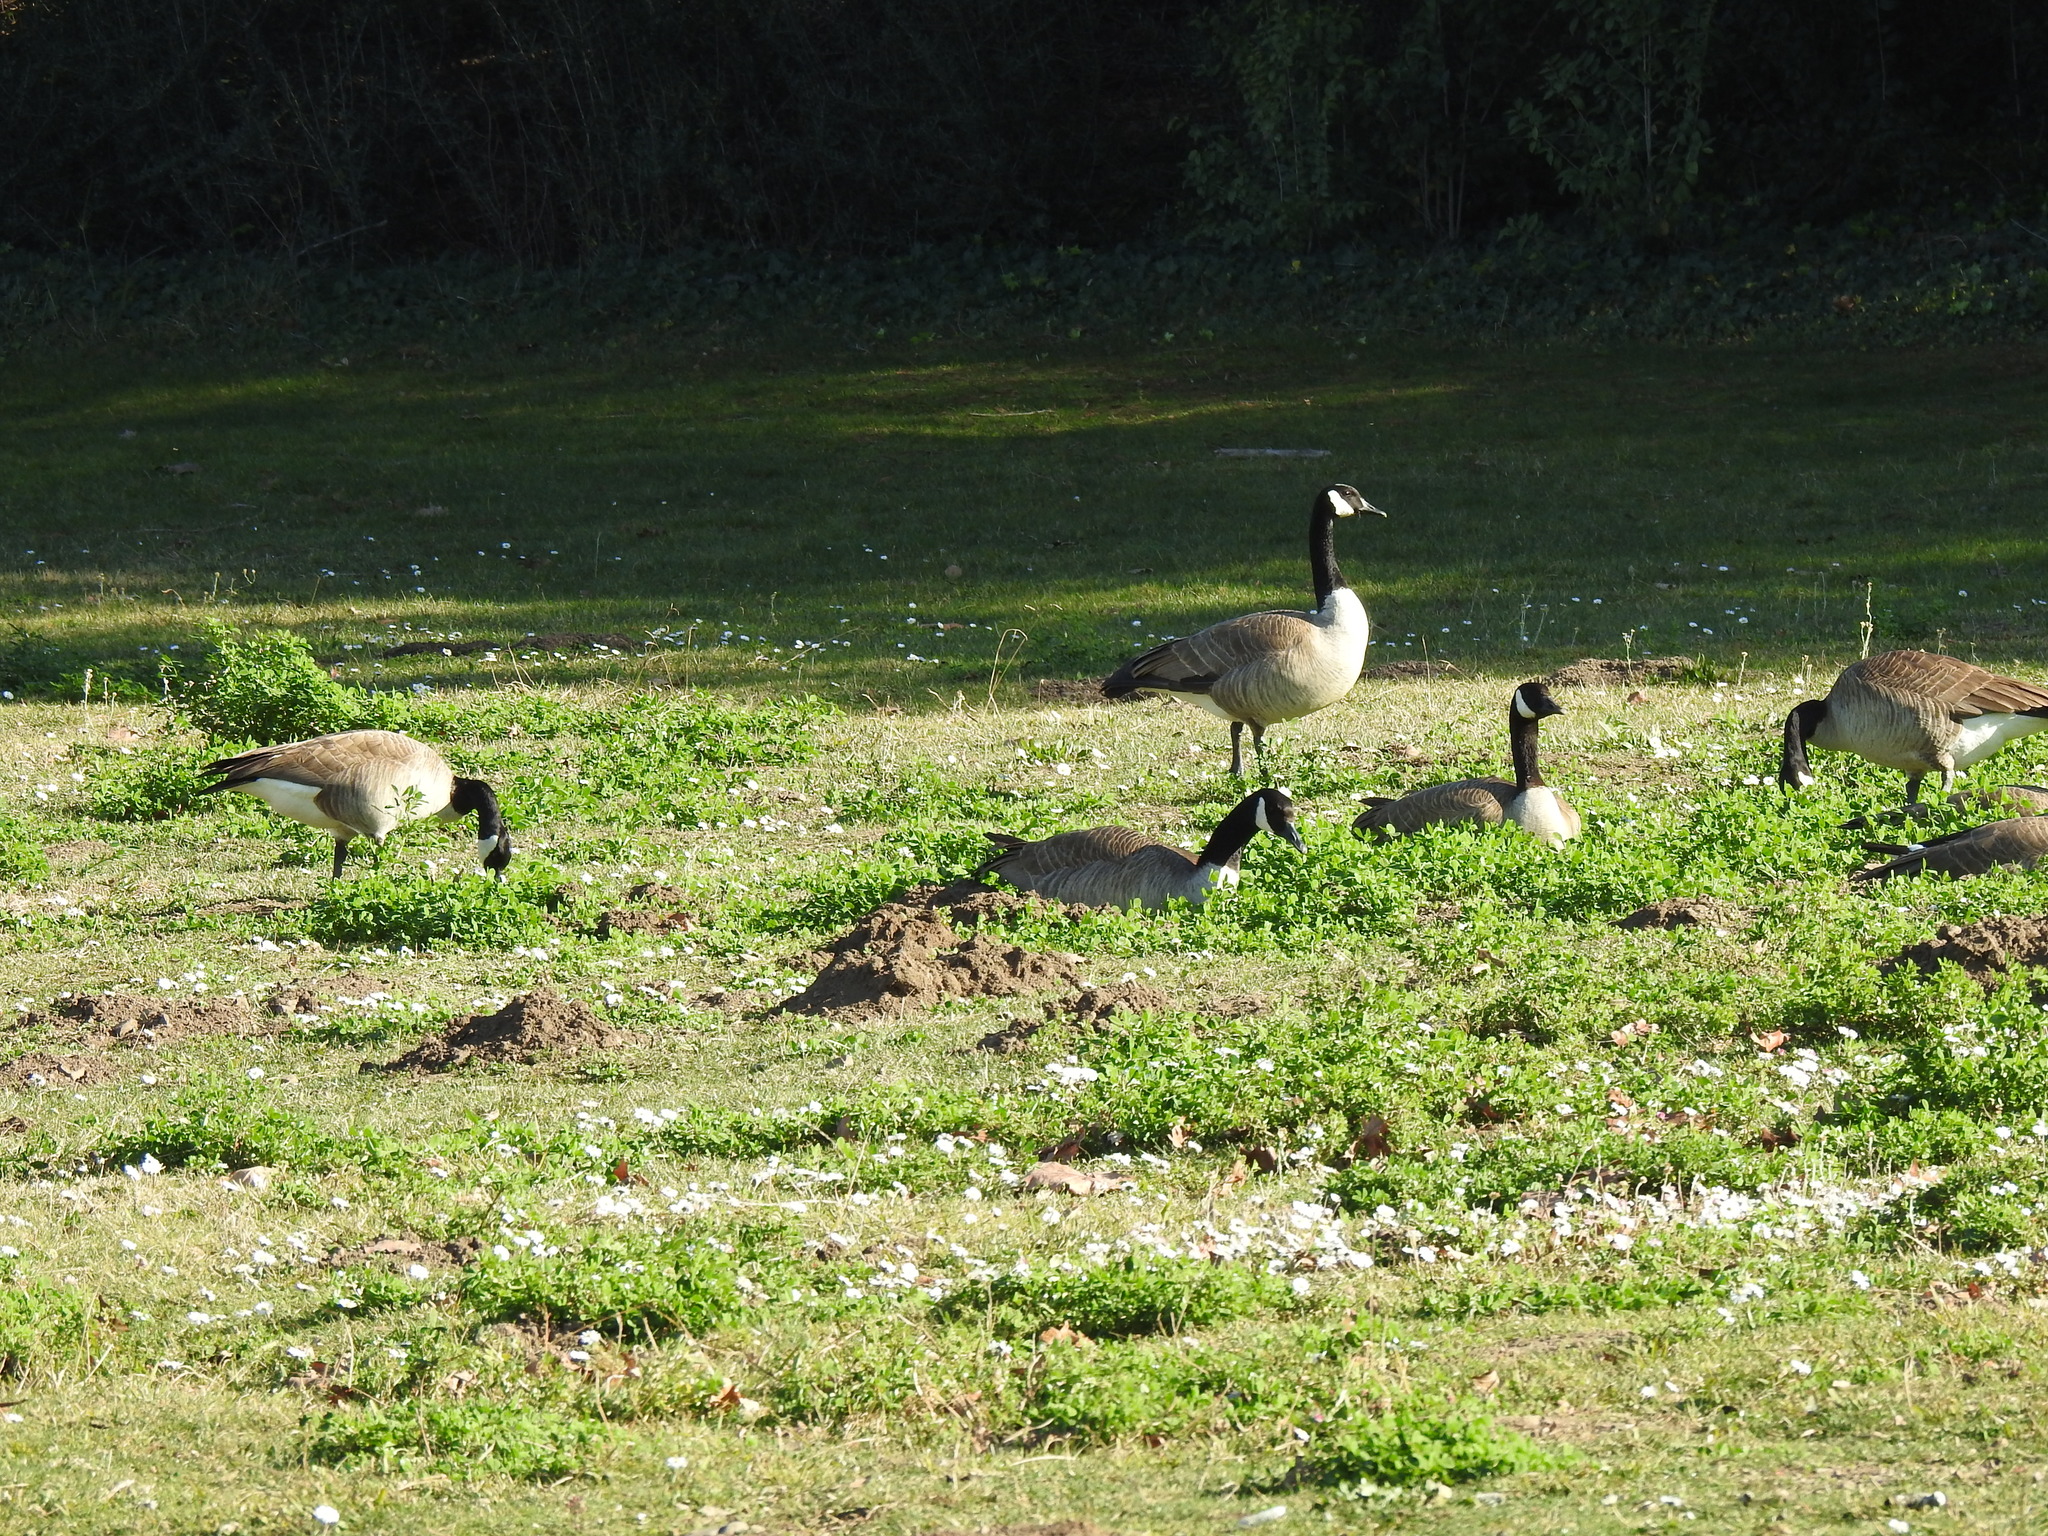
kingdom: Animalia
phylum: Chordata
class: Aves
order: Anseriformes
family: Anatidae
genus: Branta
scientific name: Branta canadensis
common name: Canada goose
